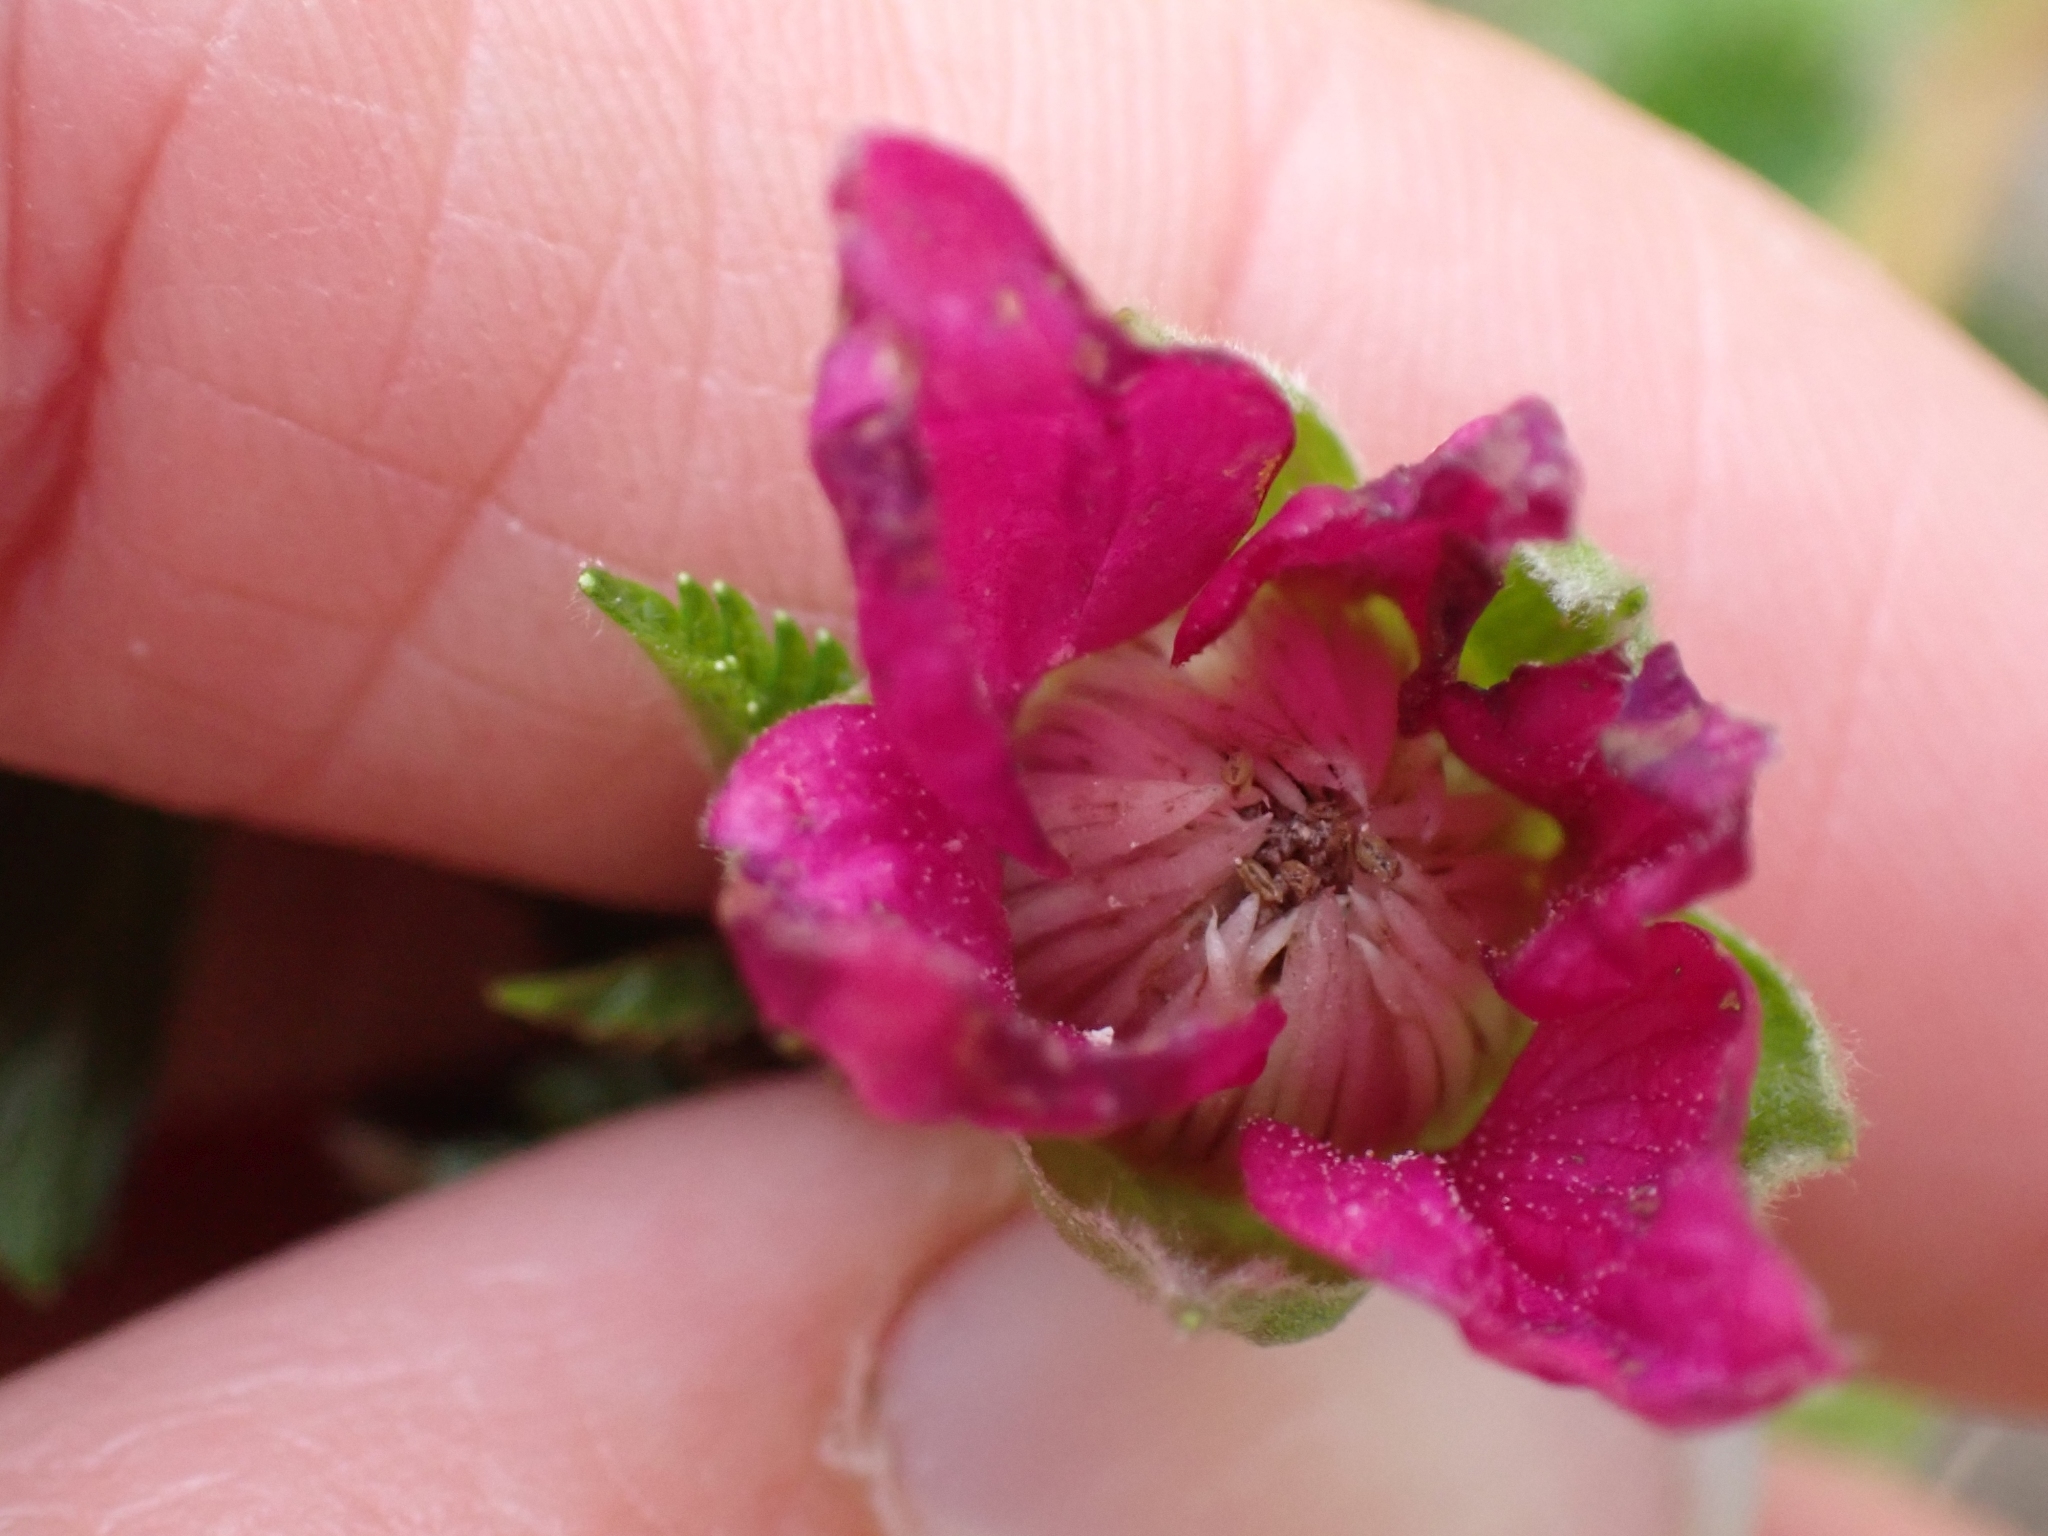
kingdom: Plantae
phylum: Tracheophyta
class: Magnoliopsida
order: Rosales
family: Rosaceae
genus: Rubus
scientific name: Rubus spectabilis
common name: Salmonberry
